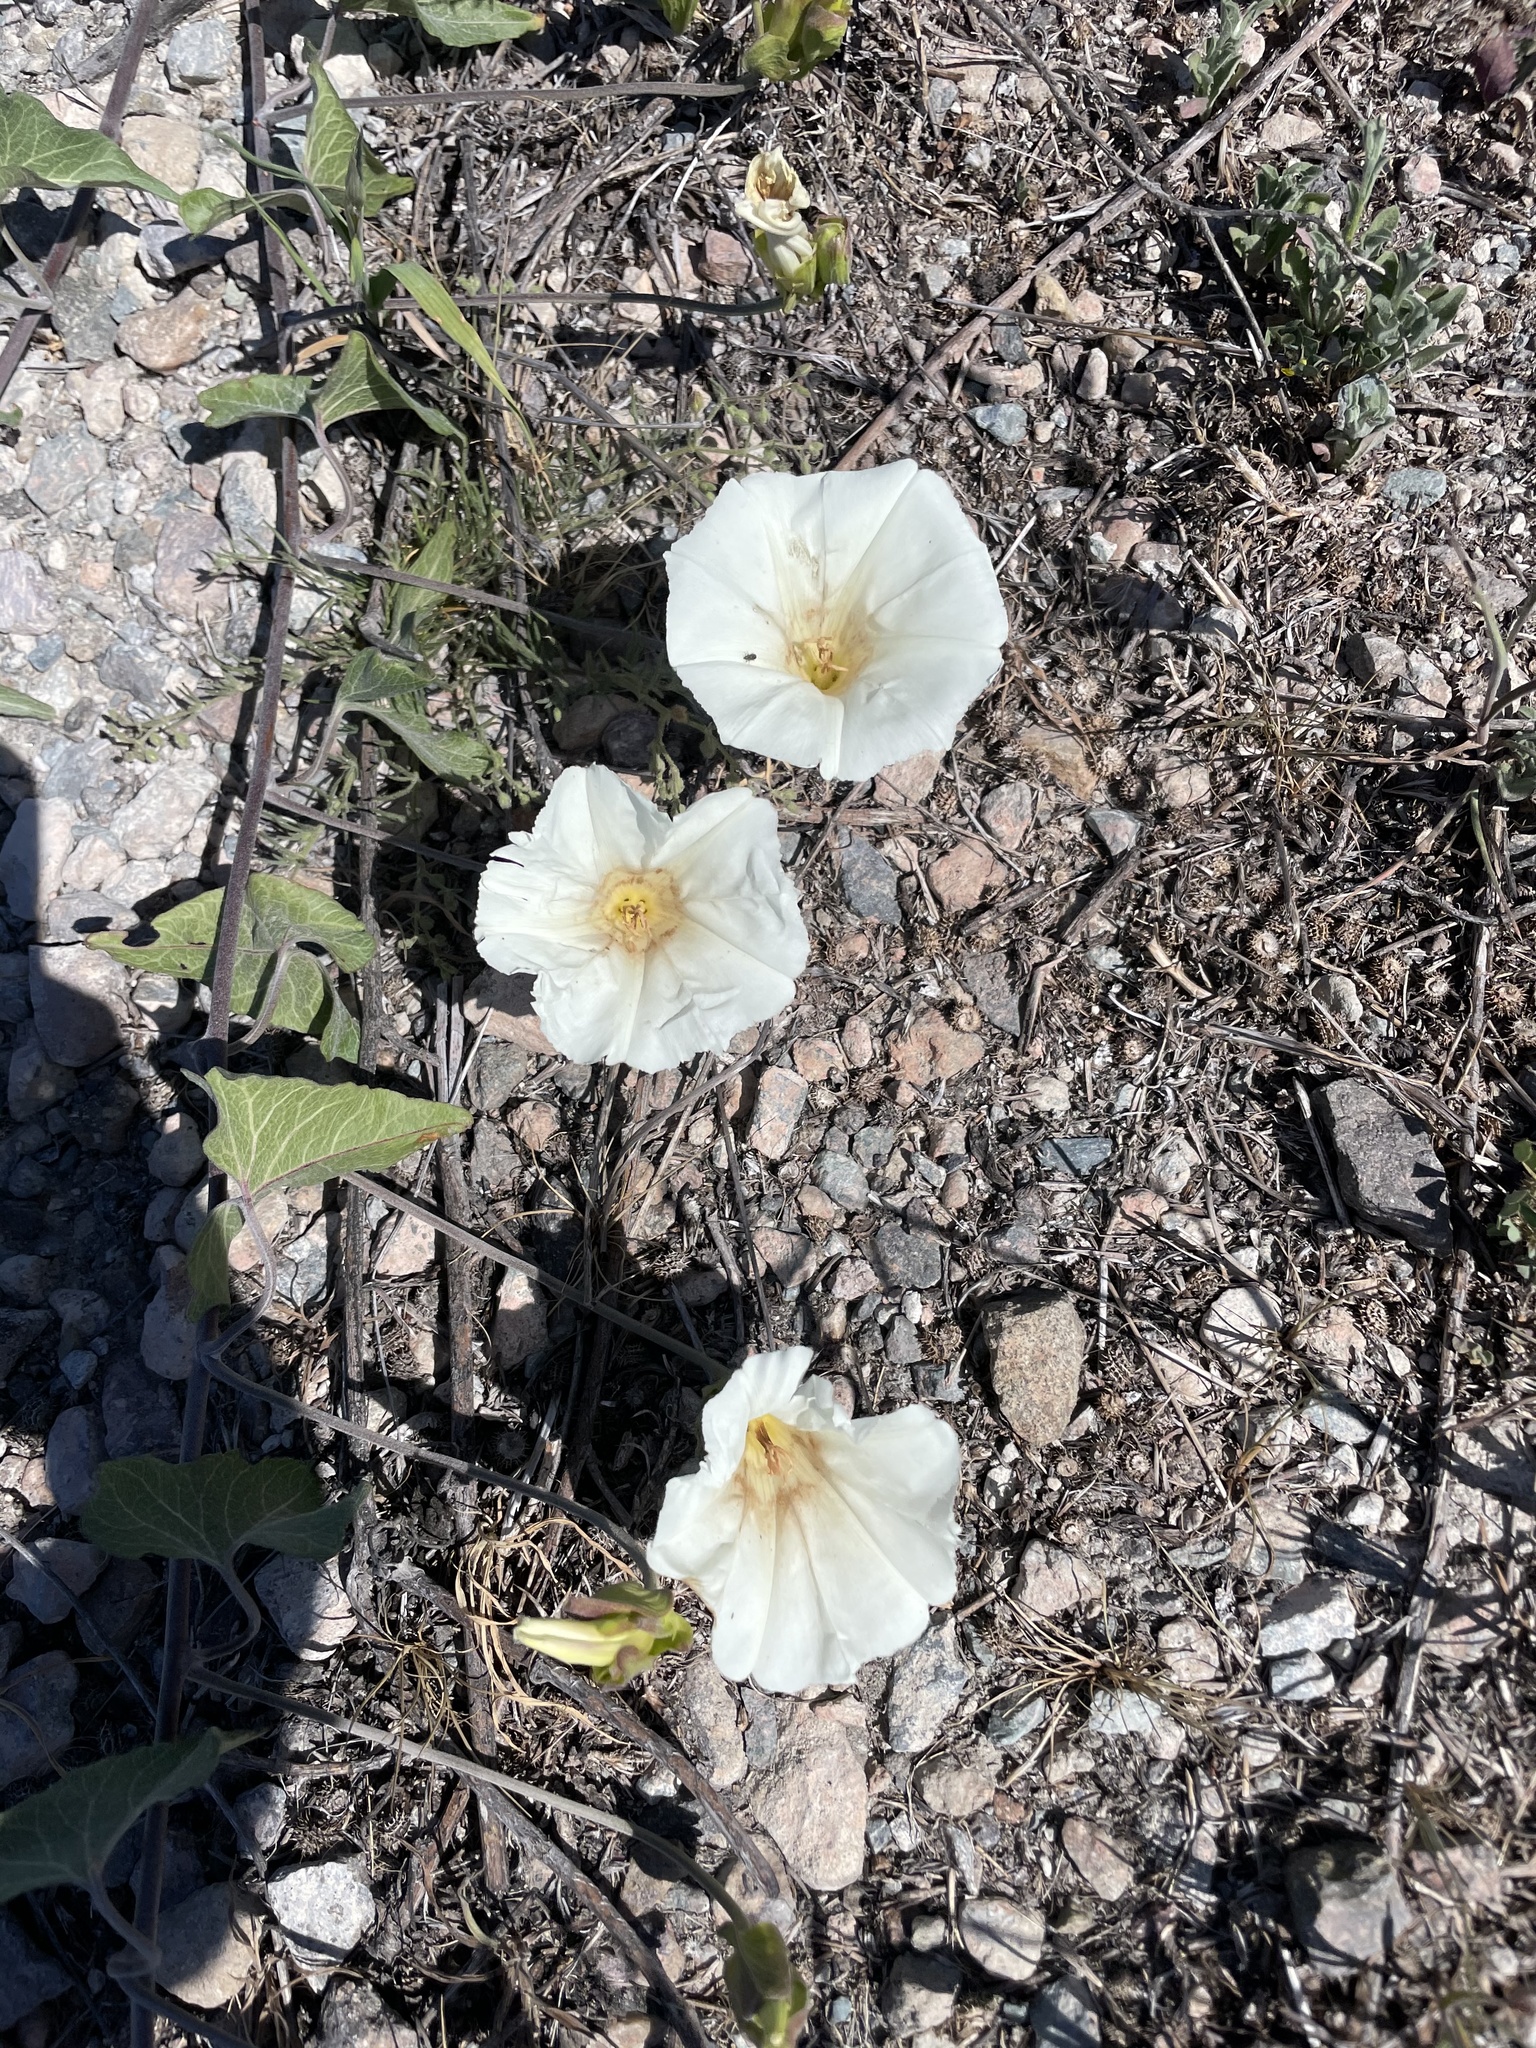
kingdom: Plantae
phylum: Tracheophyta
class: Magnoliopsida
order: Solanales
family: Convolvulaceae
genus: Calystegia
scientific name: Calystegia macrostegia
